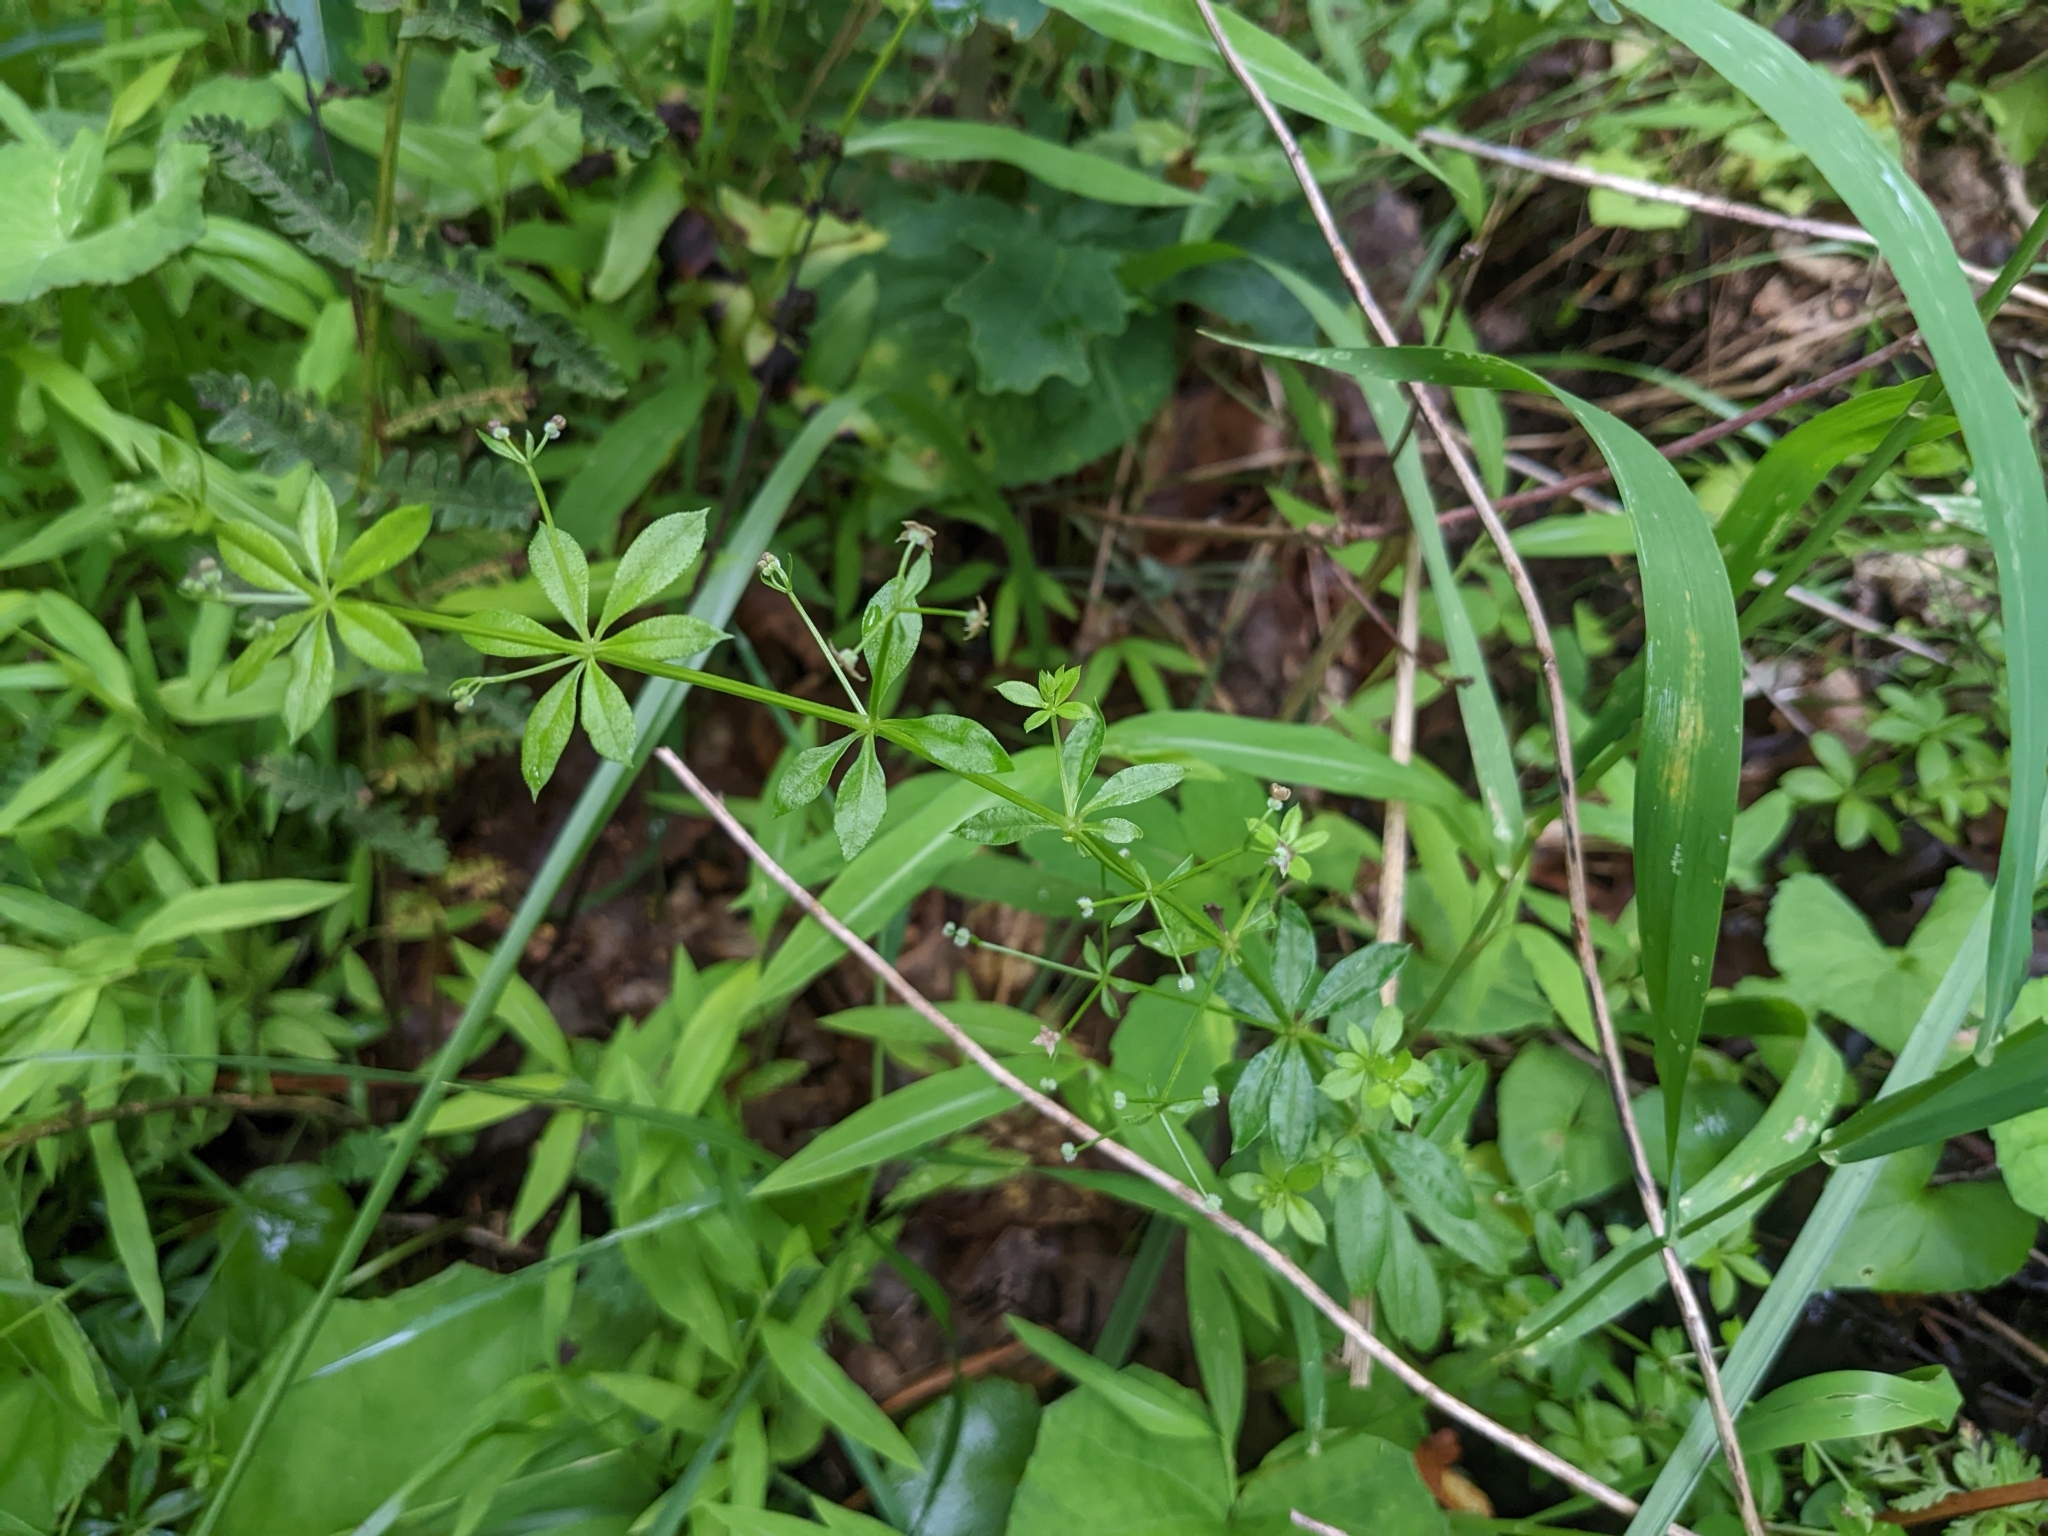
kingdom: Plantae
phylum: Tracheophyta
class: Magnoliopsida
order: Gentianales
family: Rubiaceae
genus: Galium
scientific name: Galium triflorum
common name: Fragrant bedstraw
